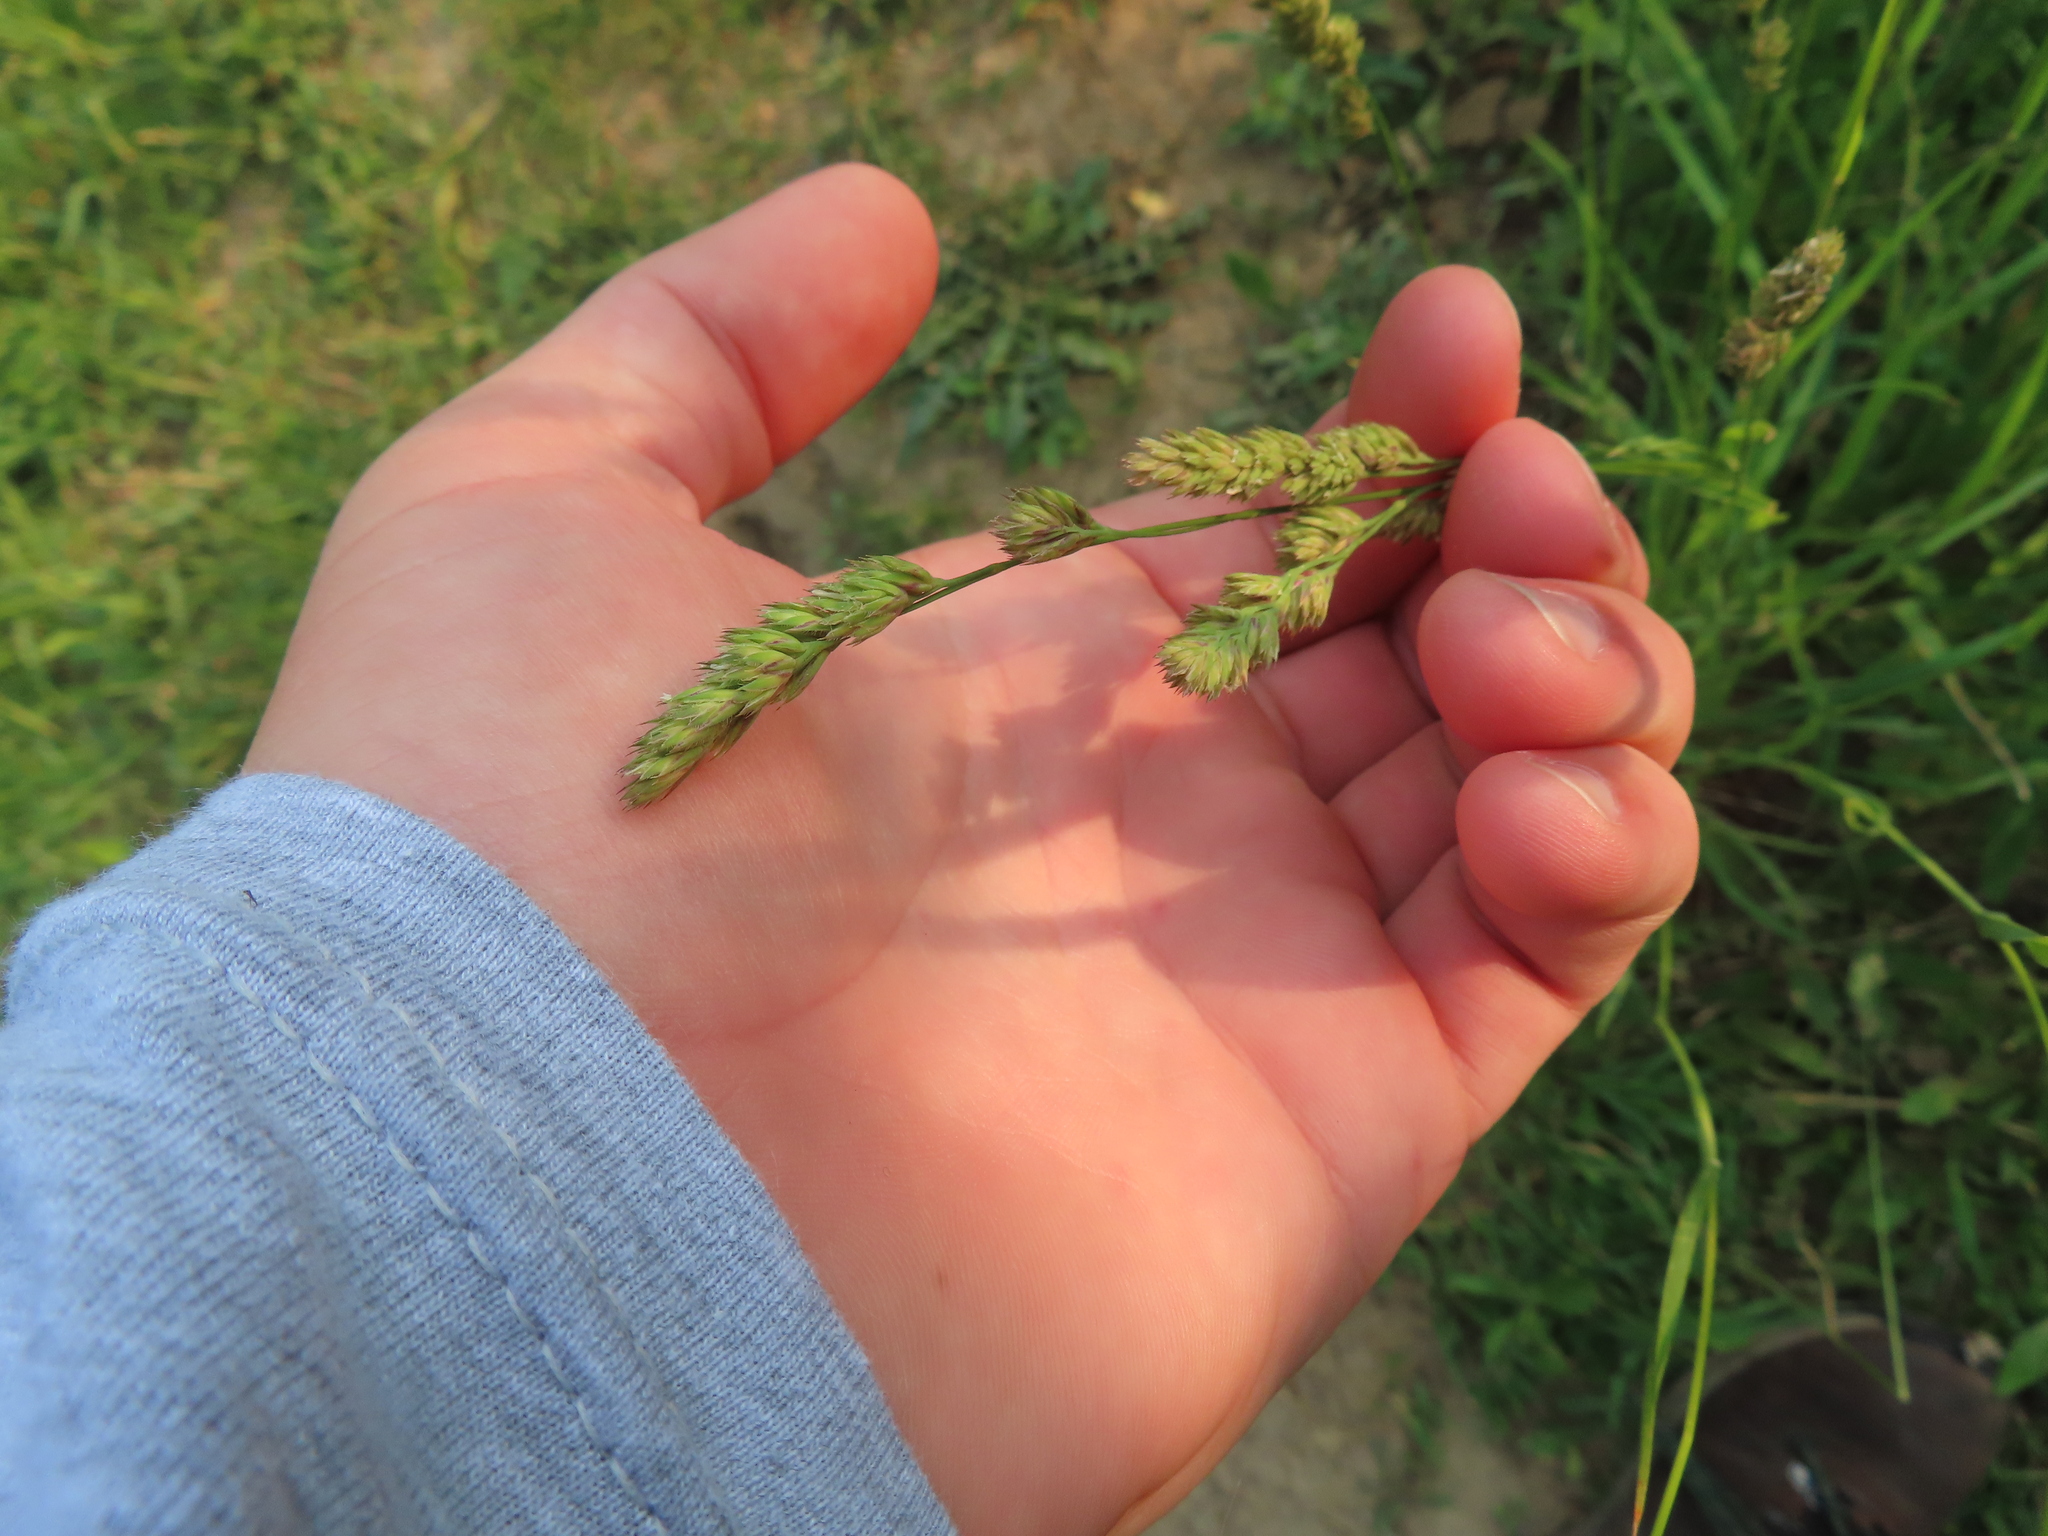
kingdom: Plantae
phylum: Tracheophyta
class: Liliopsida
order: Poales
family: Poaceae
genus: Dactylis
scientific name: Dactylis glomerata
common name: Orchardgrass
